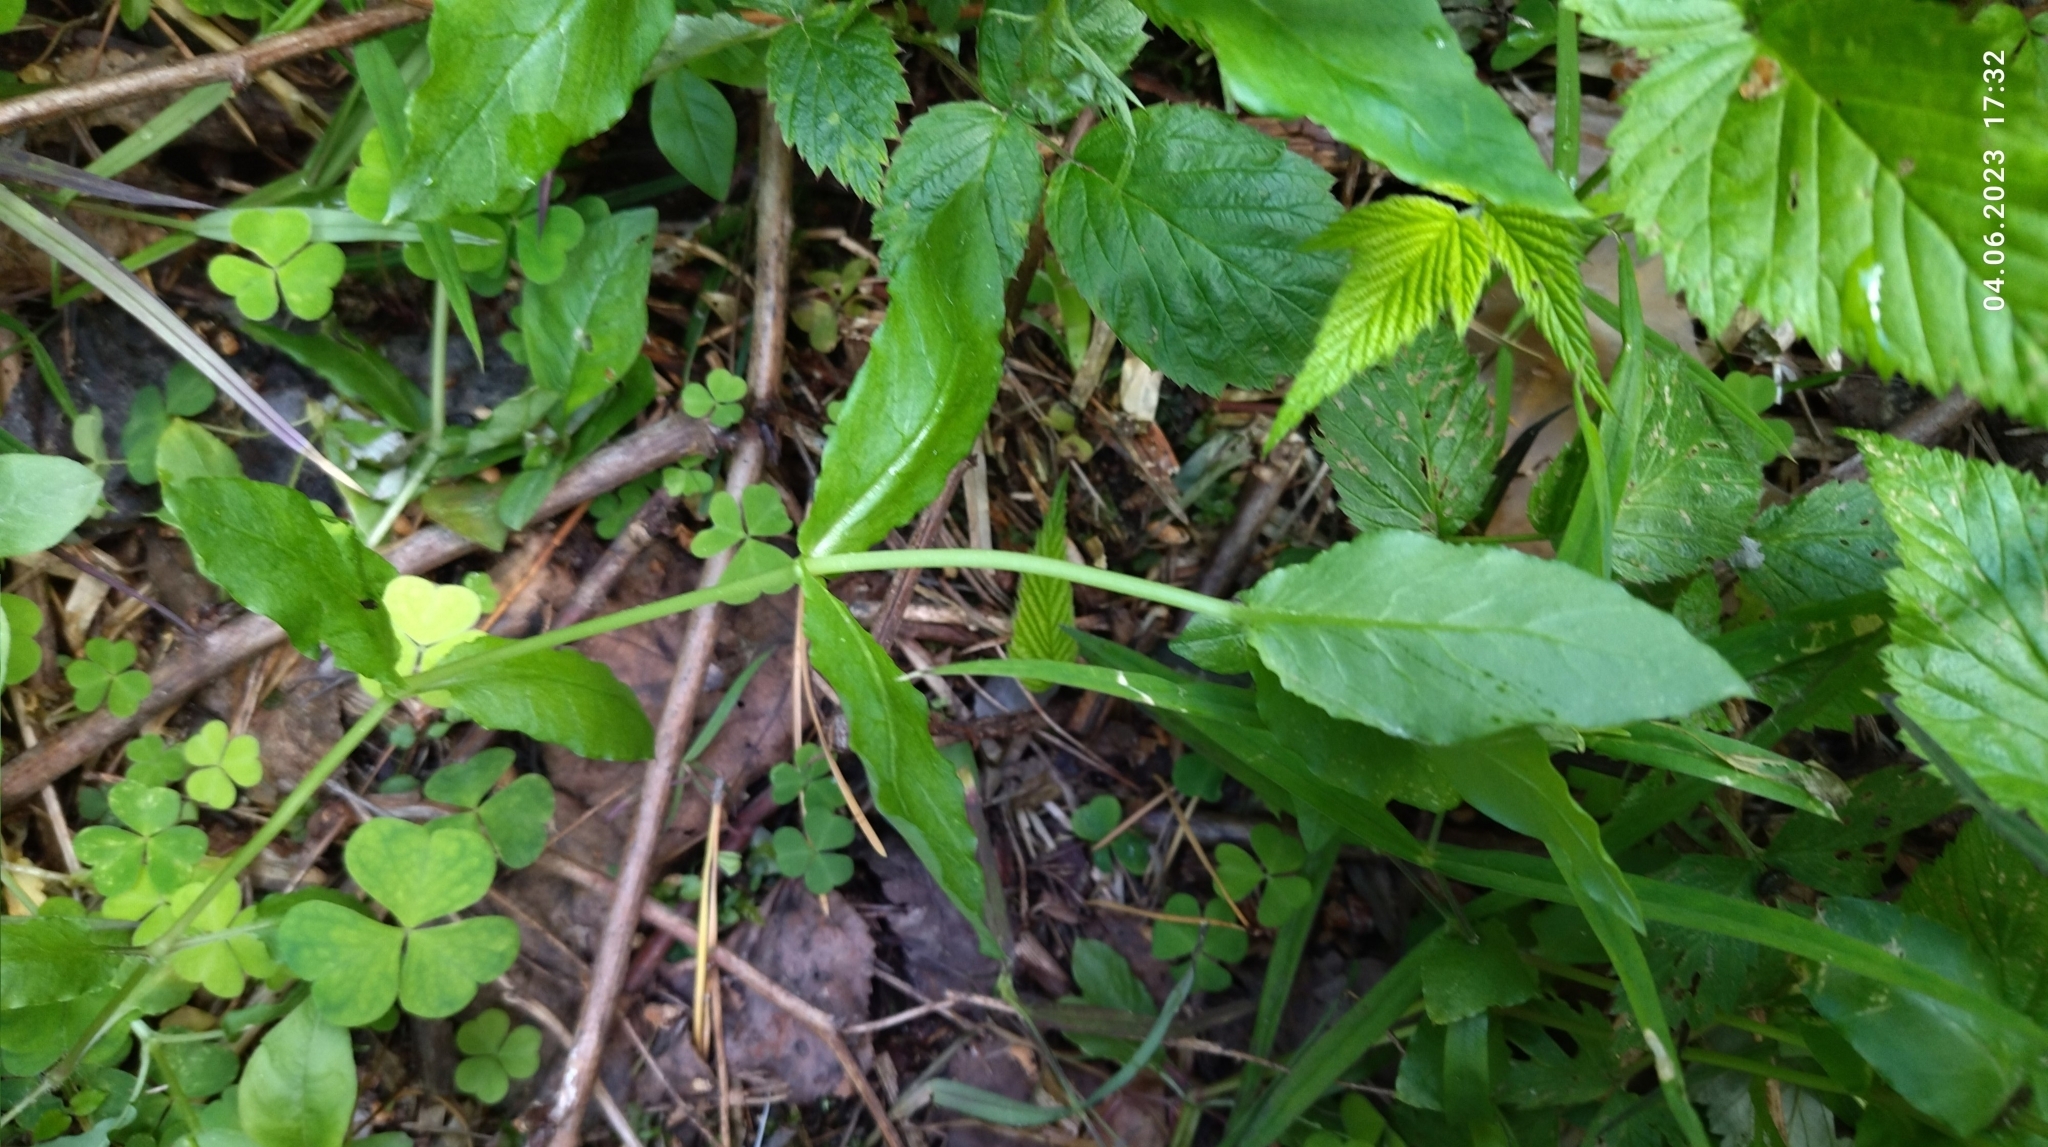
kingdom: Plantae
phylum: Tracheophyta
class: Magnoliopsida
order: Caryophyllales
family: Caryophyllaceae
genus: Stellaria
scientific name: Stellaria aquatica
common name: Water chickweed
